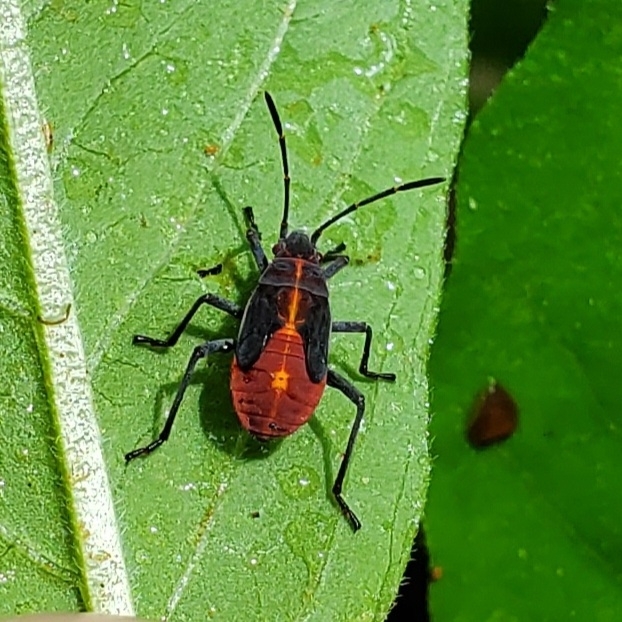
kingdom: Animalia
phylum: Arthropoda
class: Insecta
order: Hemiptera
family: Rhopalidae
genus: Boisea
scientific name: Boisea trivittata
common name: Boxelder bug
